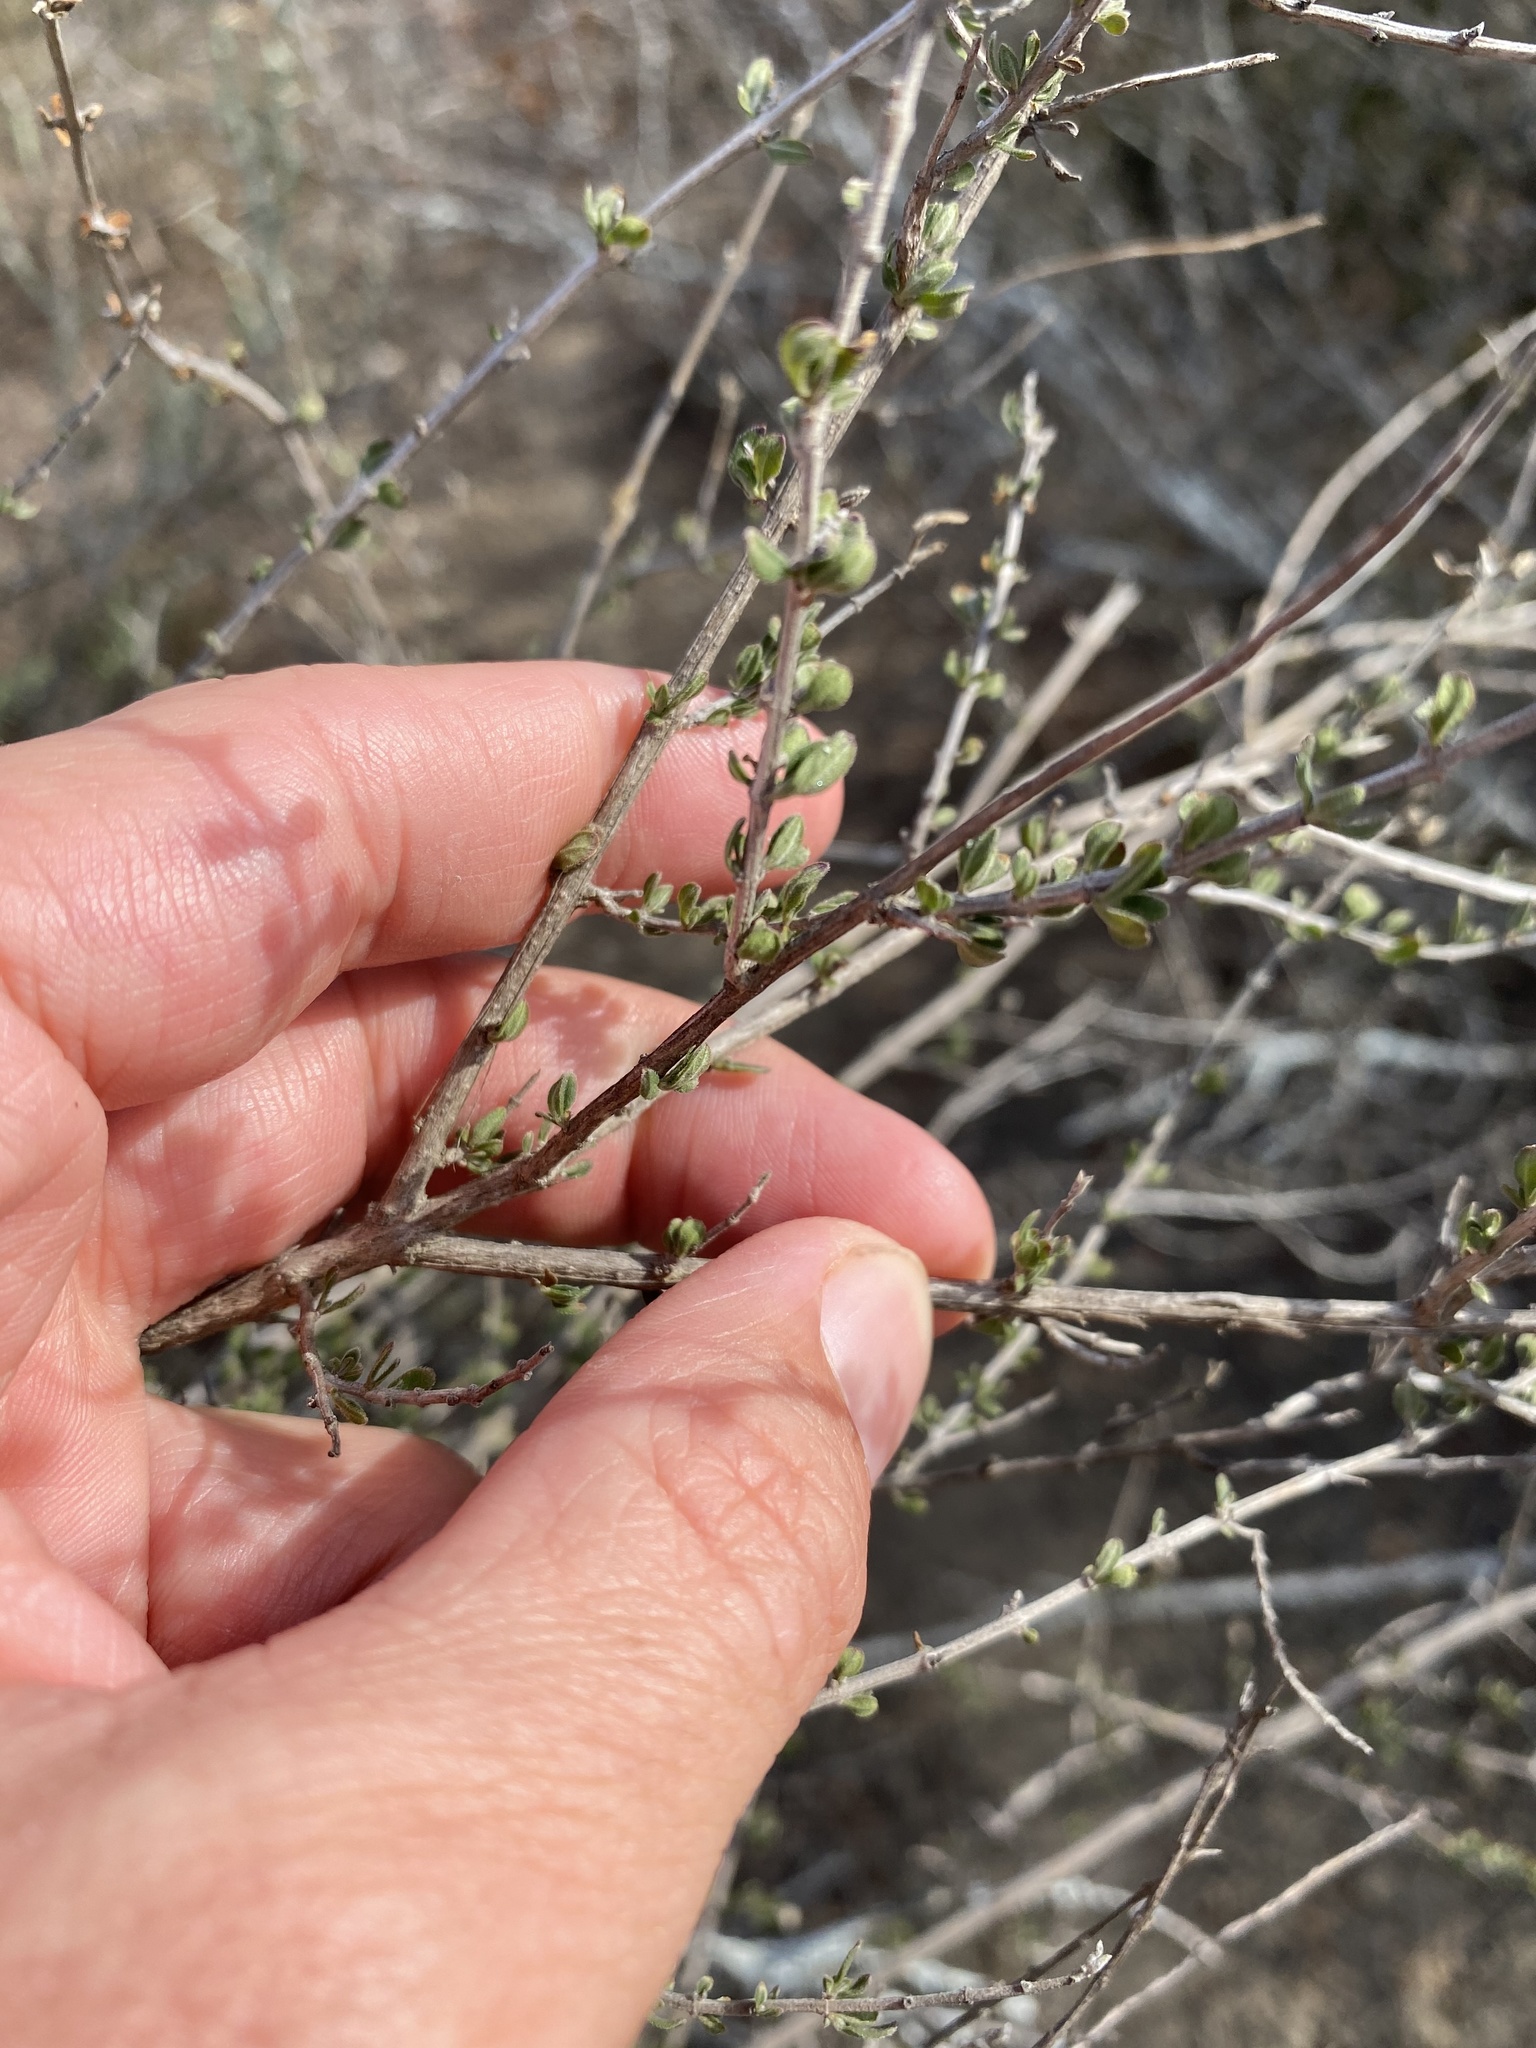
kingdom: Plantae
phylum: Tracheophyta
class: Magnoliopsida
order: Lamiales
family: Verbenaceae
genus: Aloysia
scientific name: Aloysia gratissima
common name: Common bee-brush
